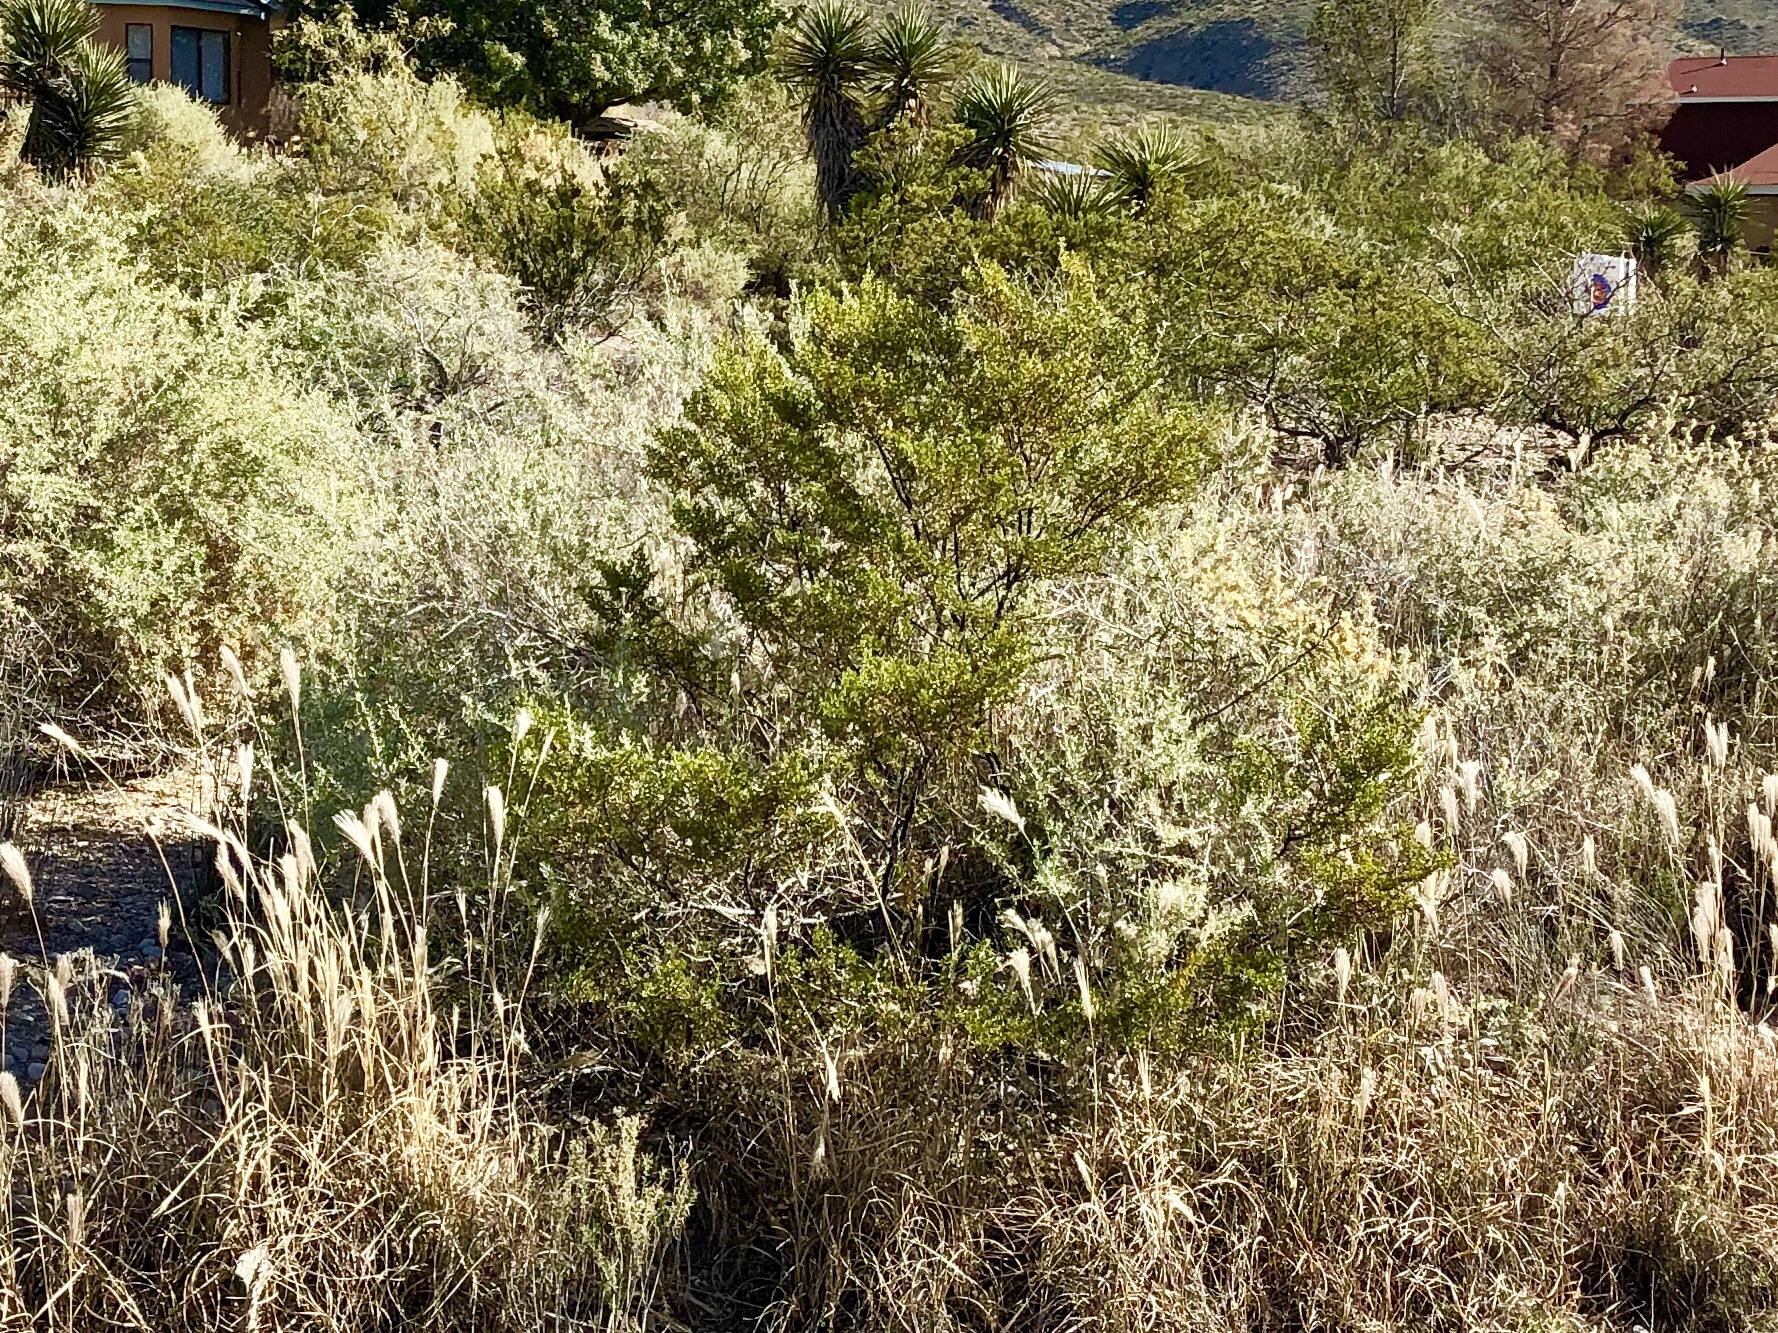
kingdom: Plantae
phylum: Tracheophyta
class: Magnoliopsida
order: Zygophyllales
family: Zygophyllaceae
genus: Larrea
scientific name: Larrea tridentata
